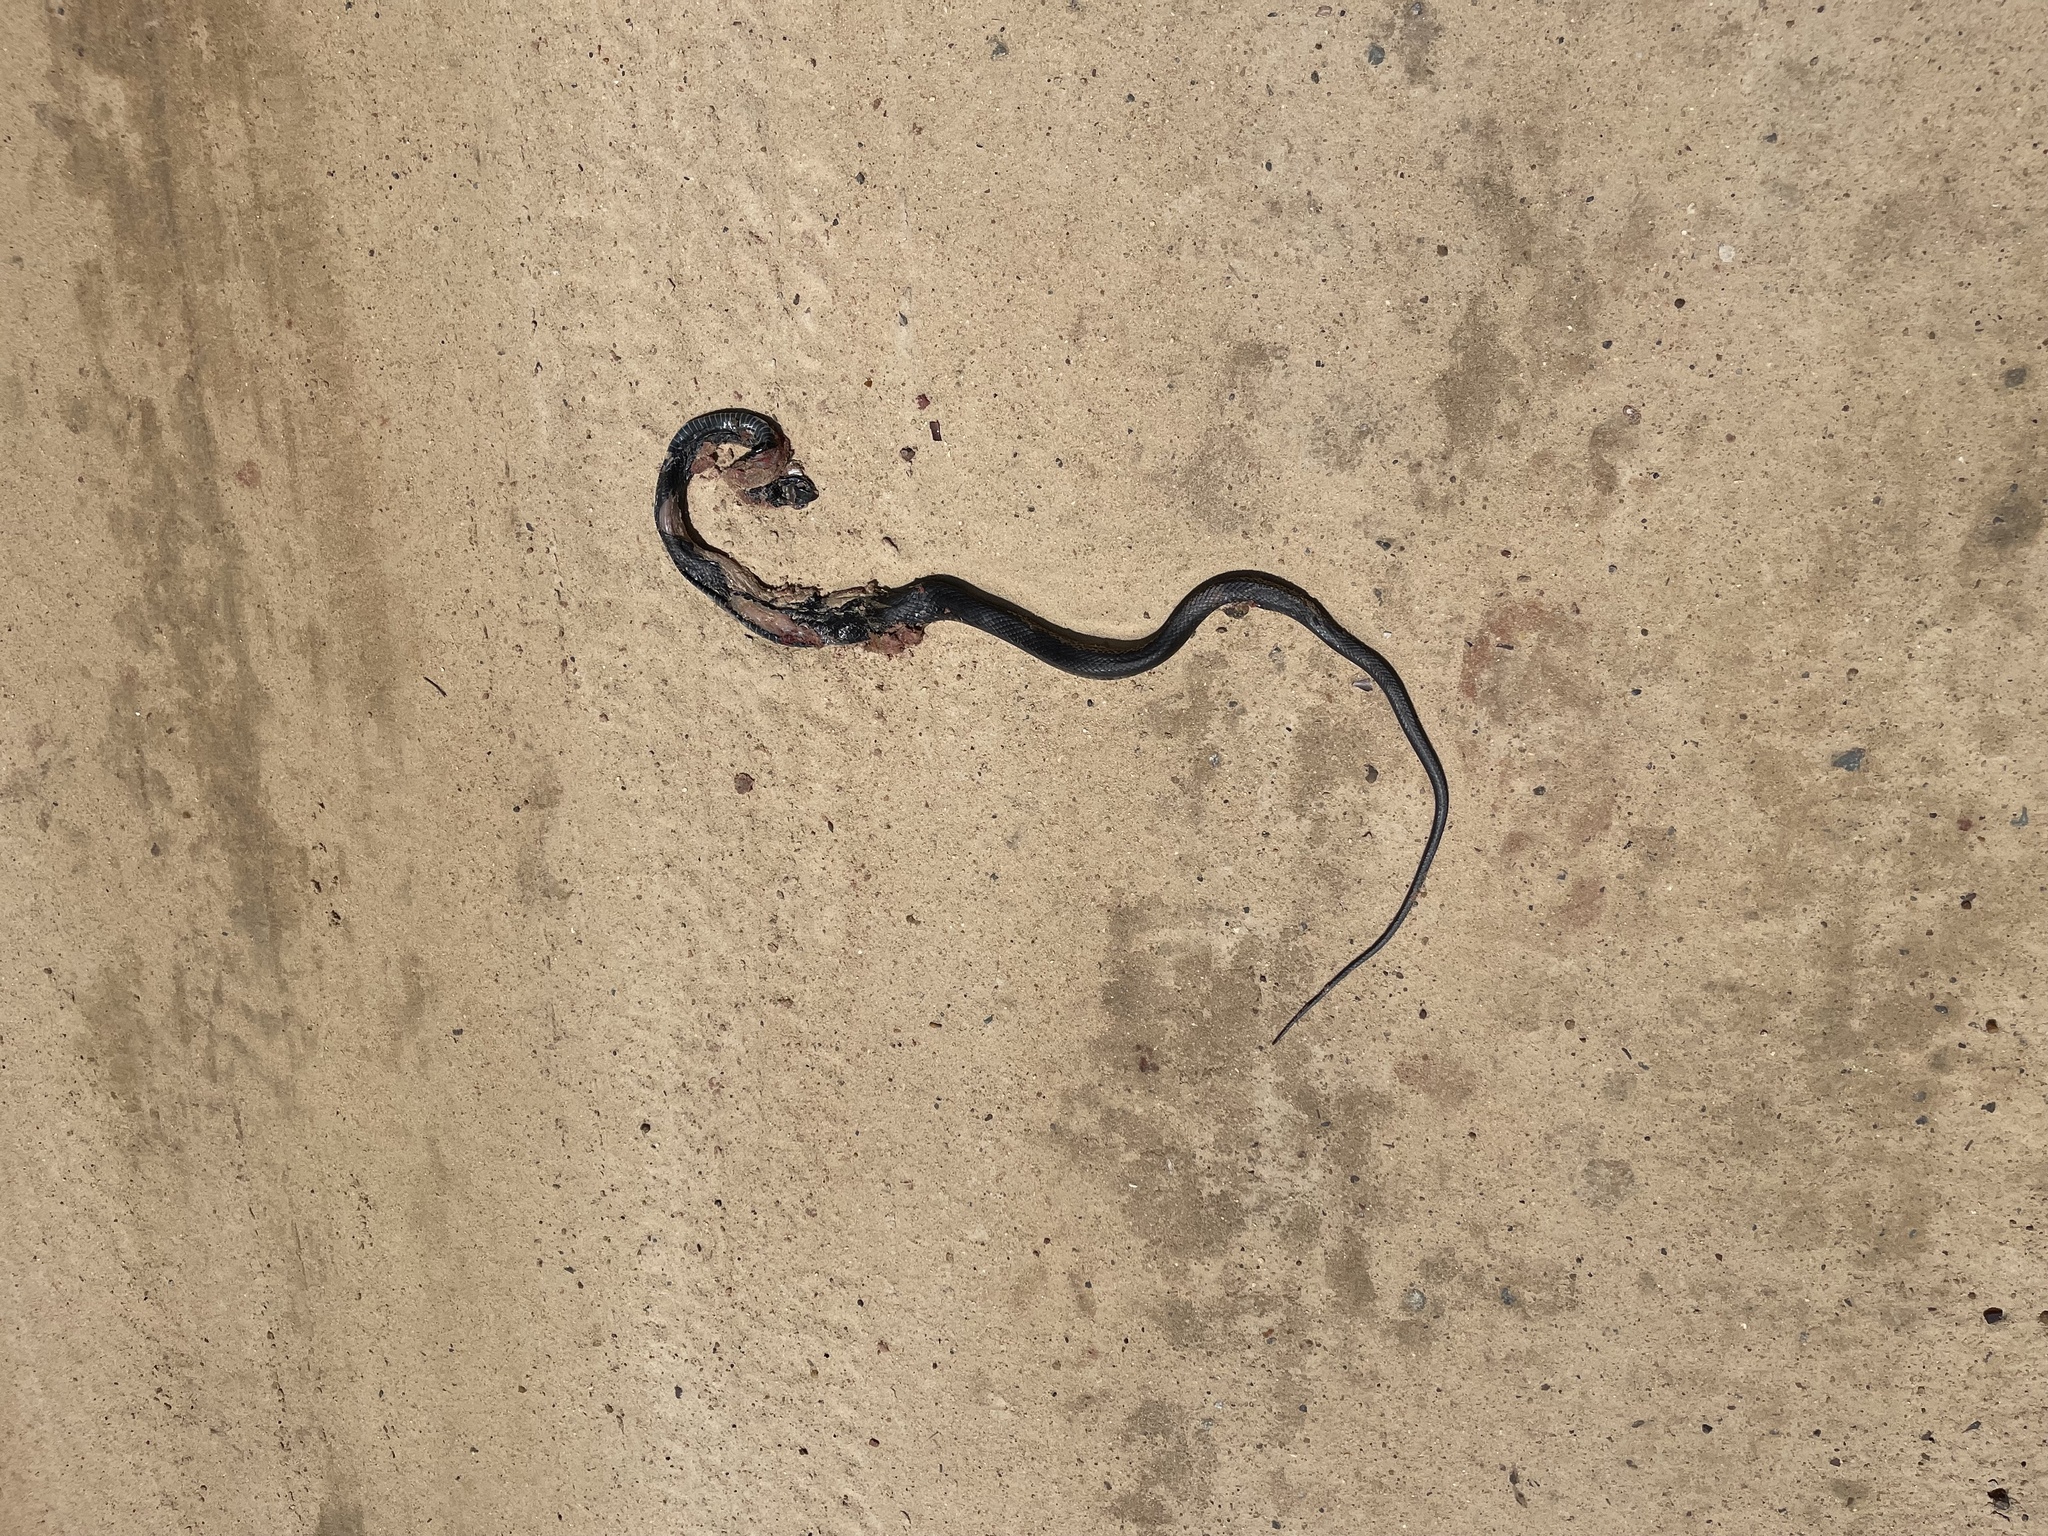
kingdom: Animalia
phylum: Chordata
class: Squamata
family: Colubridae
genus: Coluber
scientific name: Coluber constrictor
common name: Eastern racer
